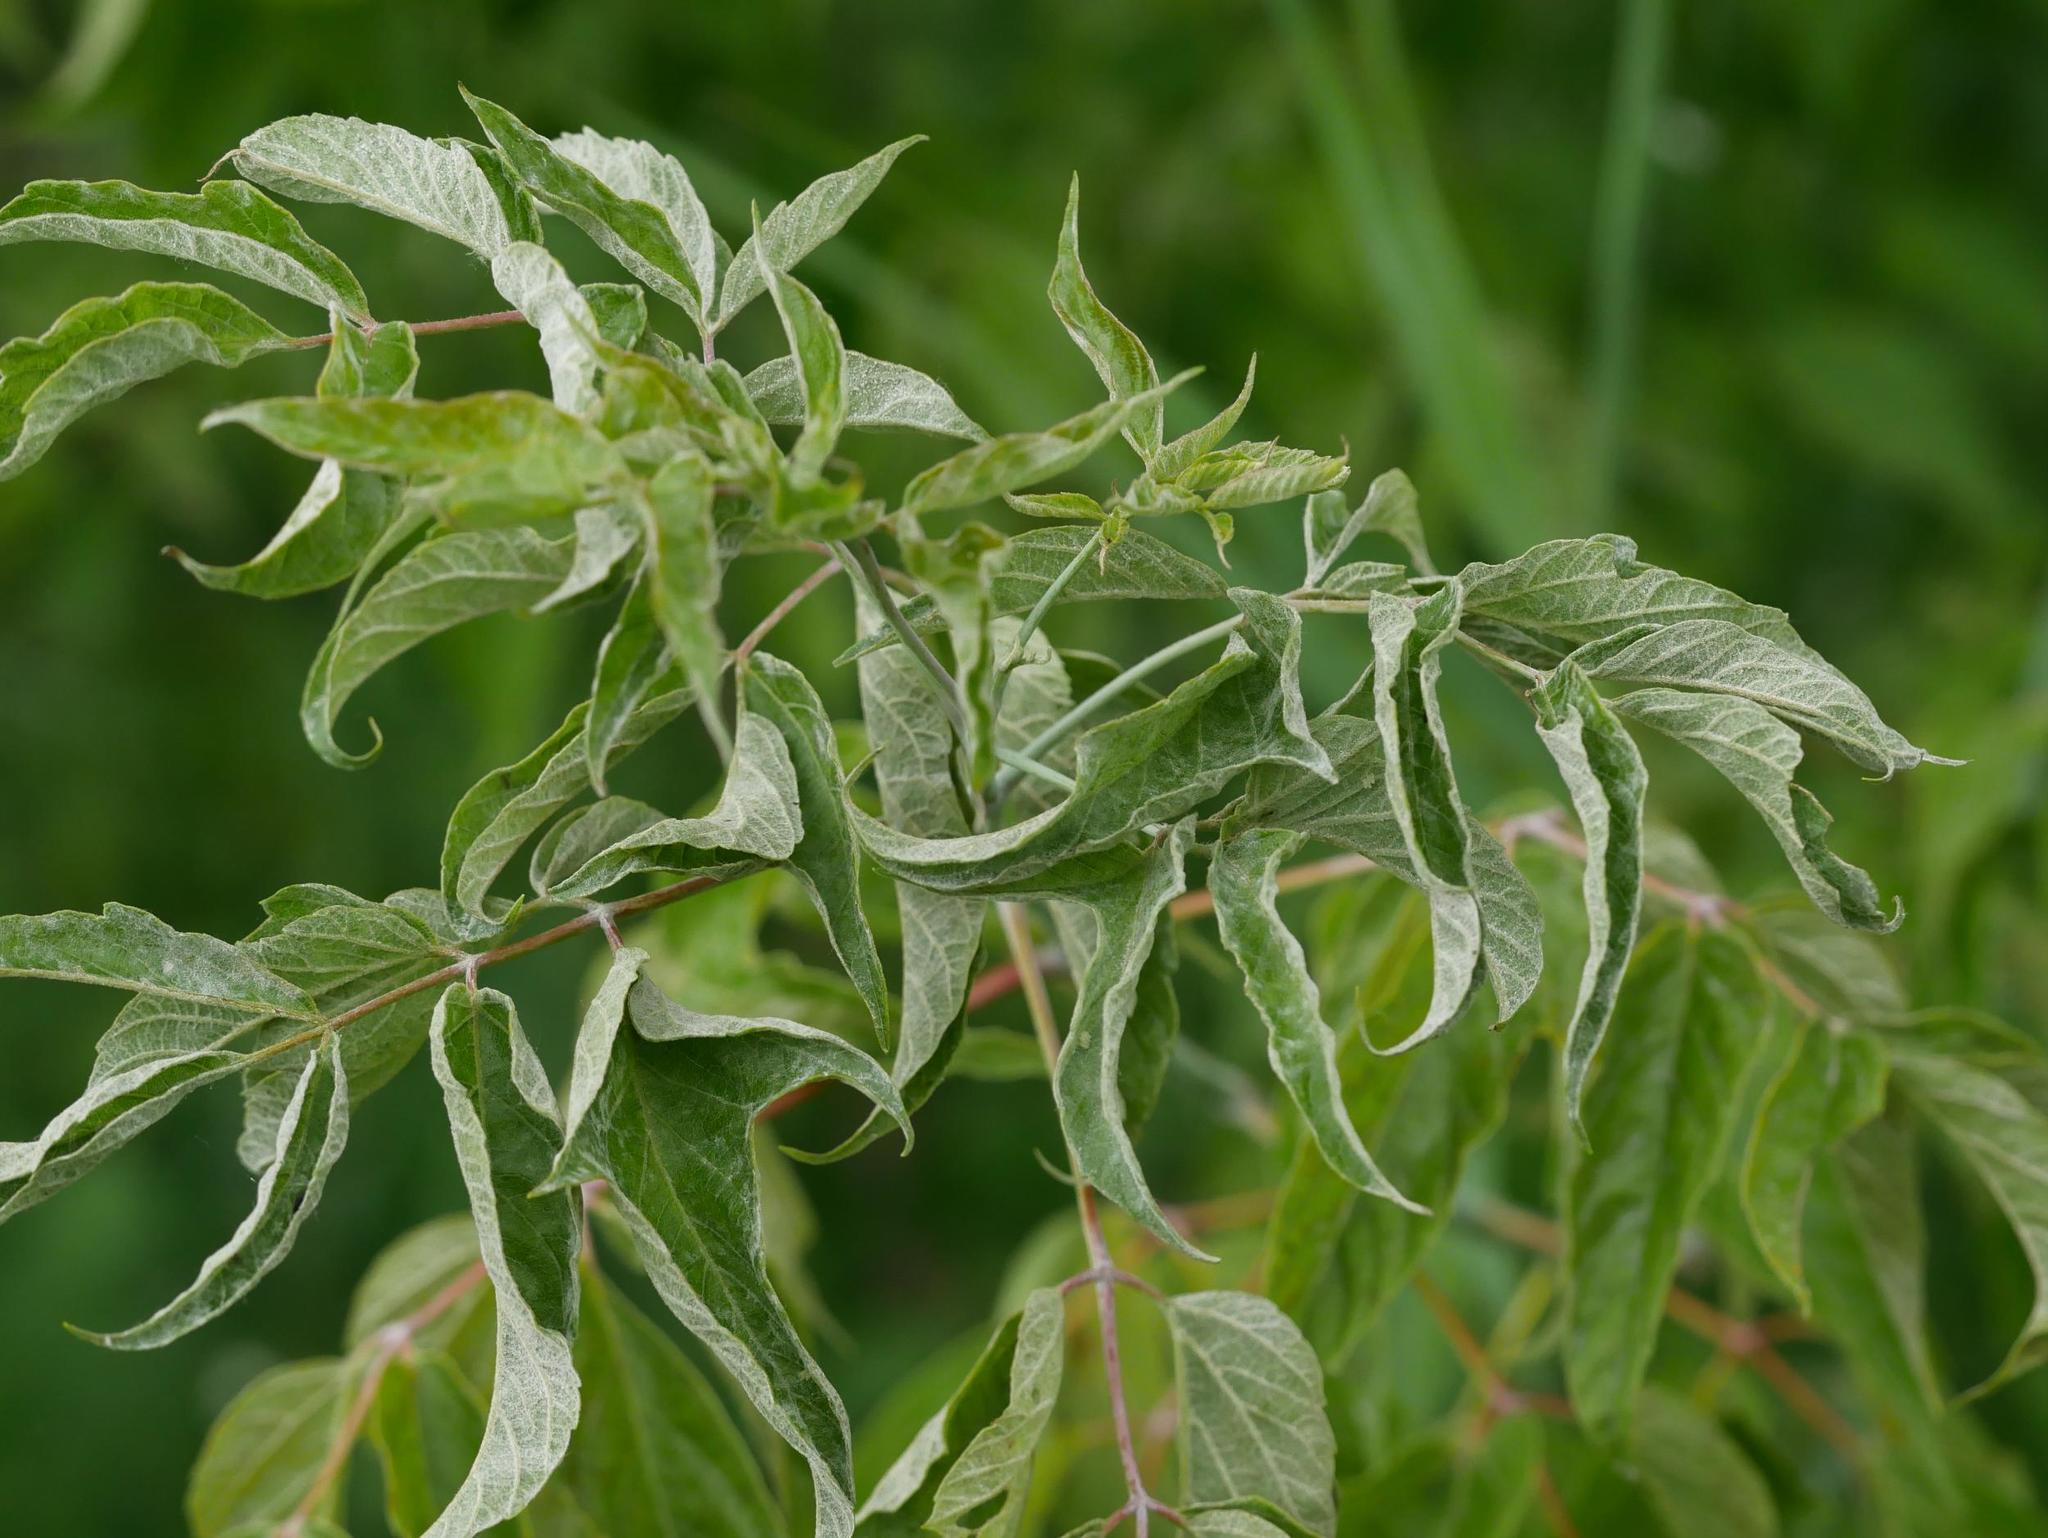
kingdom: Plantae
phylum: Tracheophyta
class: Magnoliopsida
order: Sapindales
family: Sapindaceae
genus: Acer
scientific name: Acer negundo
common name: Ashleaf maple
